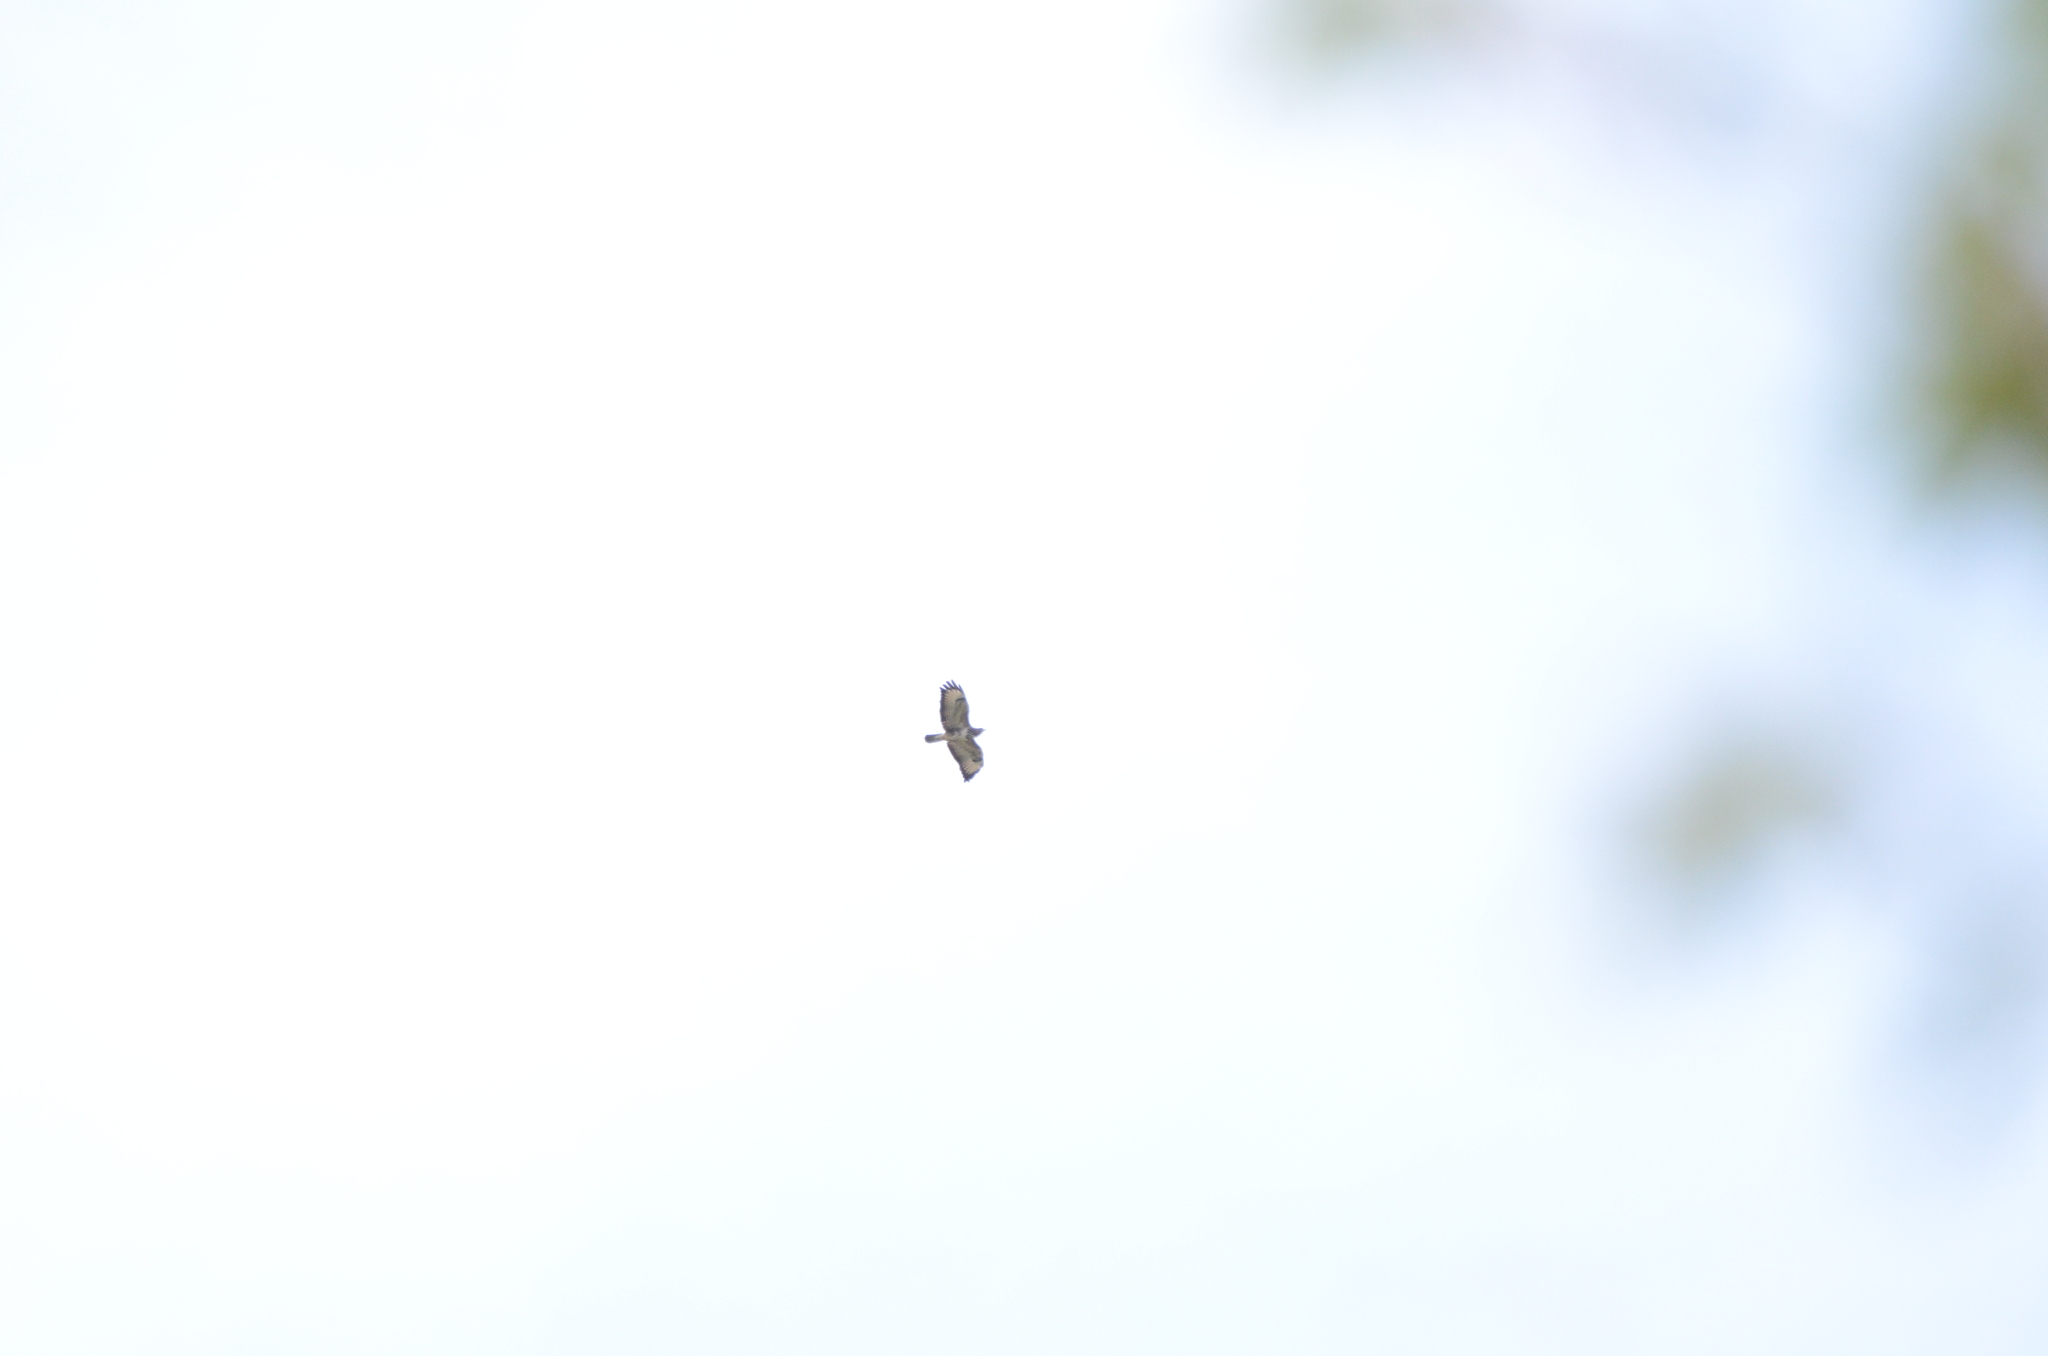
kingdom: Animalia
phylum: Chordata
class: Aves
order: Accipitriformes
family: Accipitridae
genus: Buteo
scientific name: Buteo buteo
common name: Common buzzard
